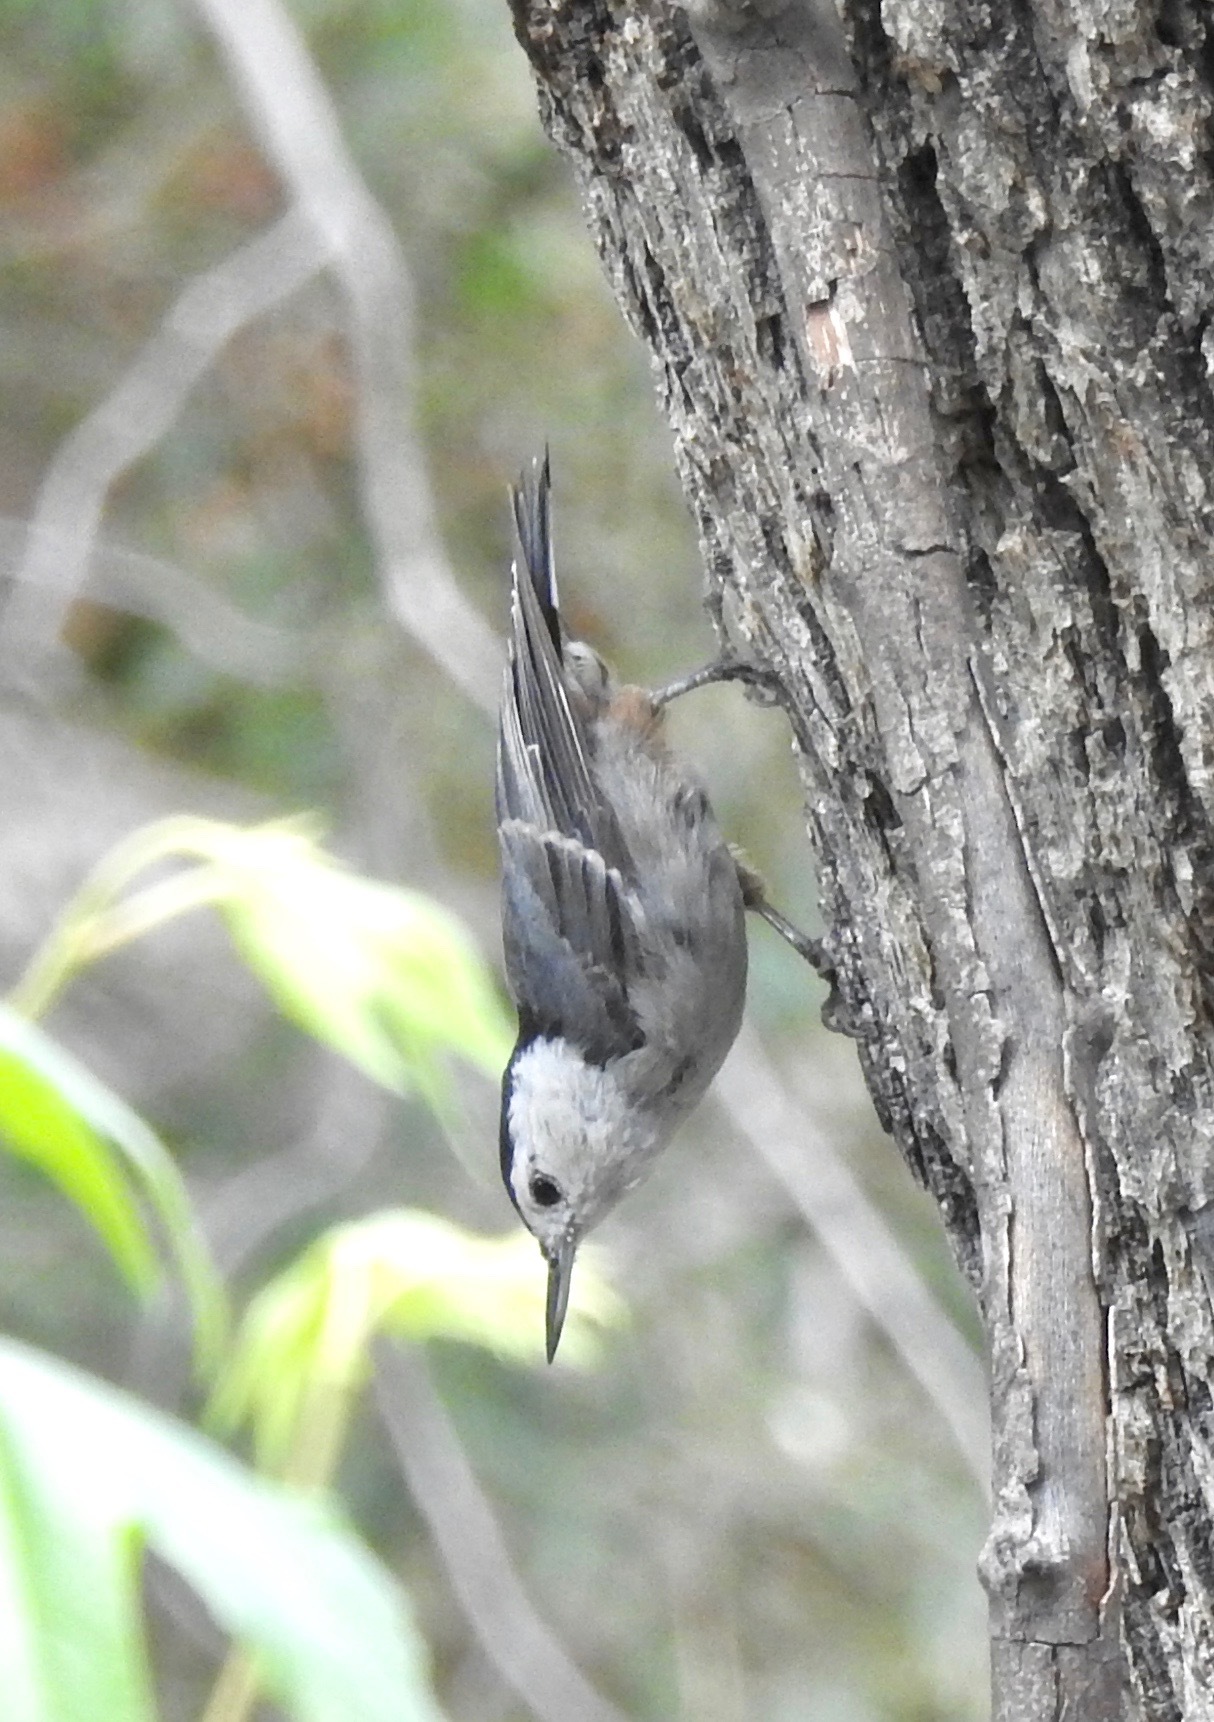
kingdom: Animalia
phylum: Chordata
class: Aves
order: Passeriformes
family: Sittidae
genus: Sitta
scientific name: Sitta carolinensis
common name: White-breasted nuthatch
